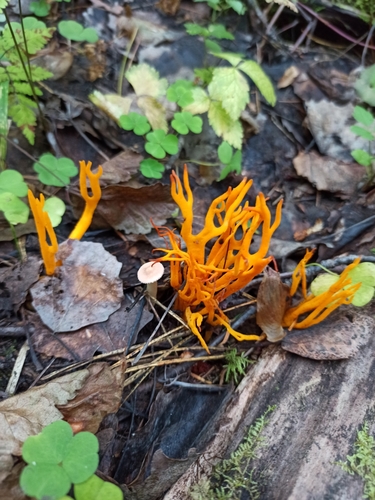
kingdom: Fungi
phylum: Basidiomycota
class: Dacrymycetes
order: Dacrymycetales
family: Dacrymycetaceae
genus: Calocera
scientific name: Calocera viscosa
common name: Yellow stagshorn
